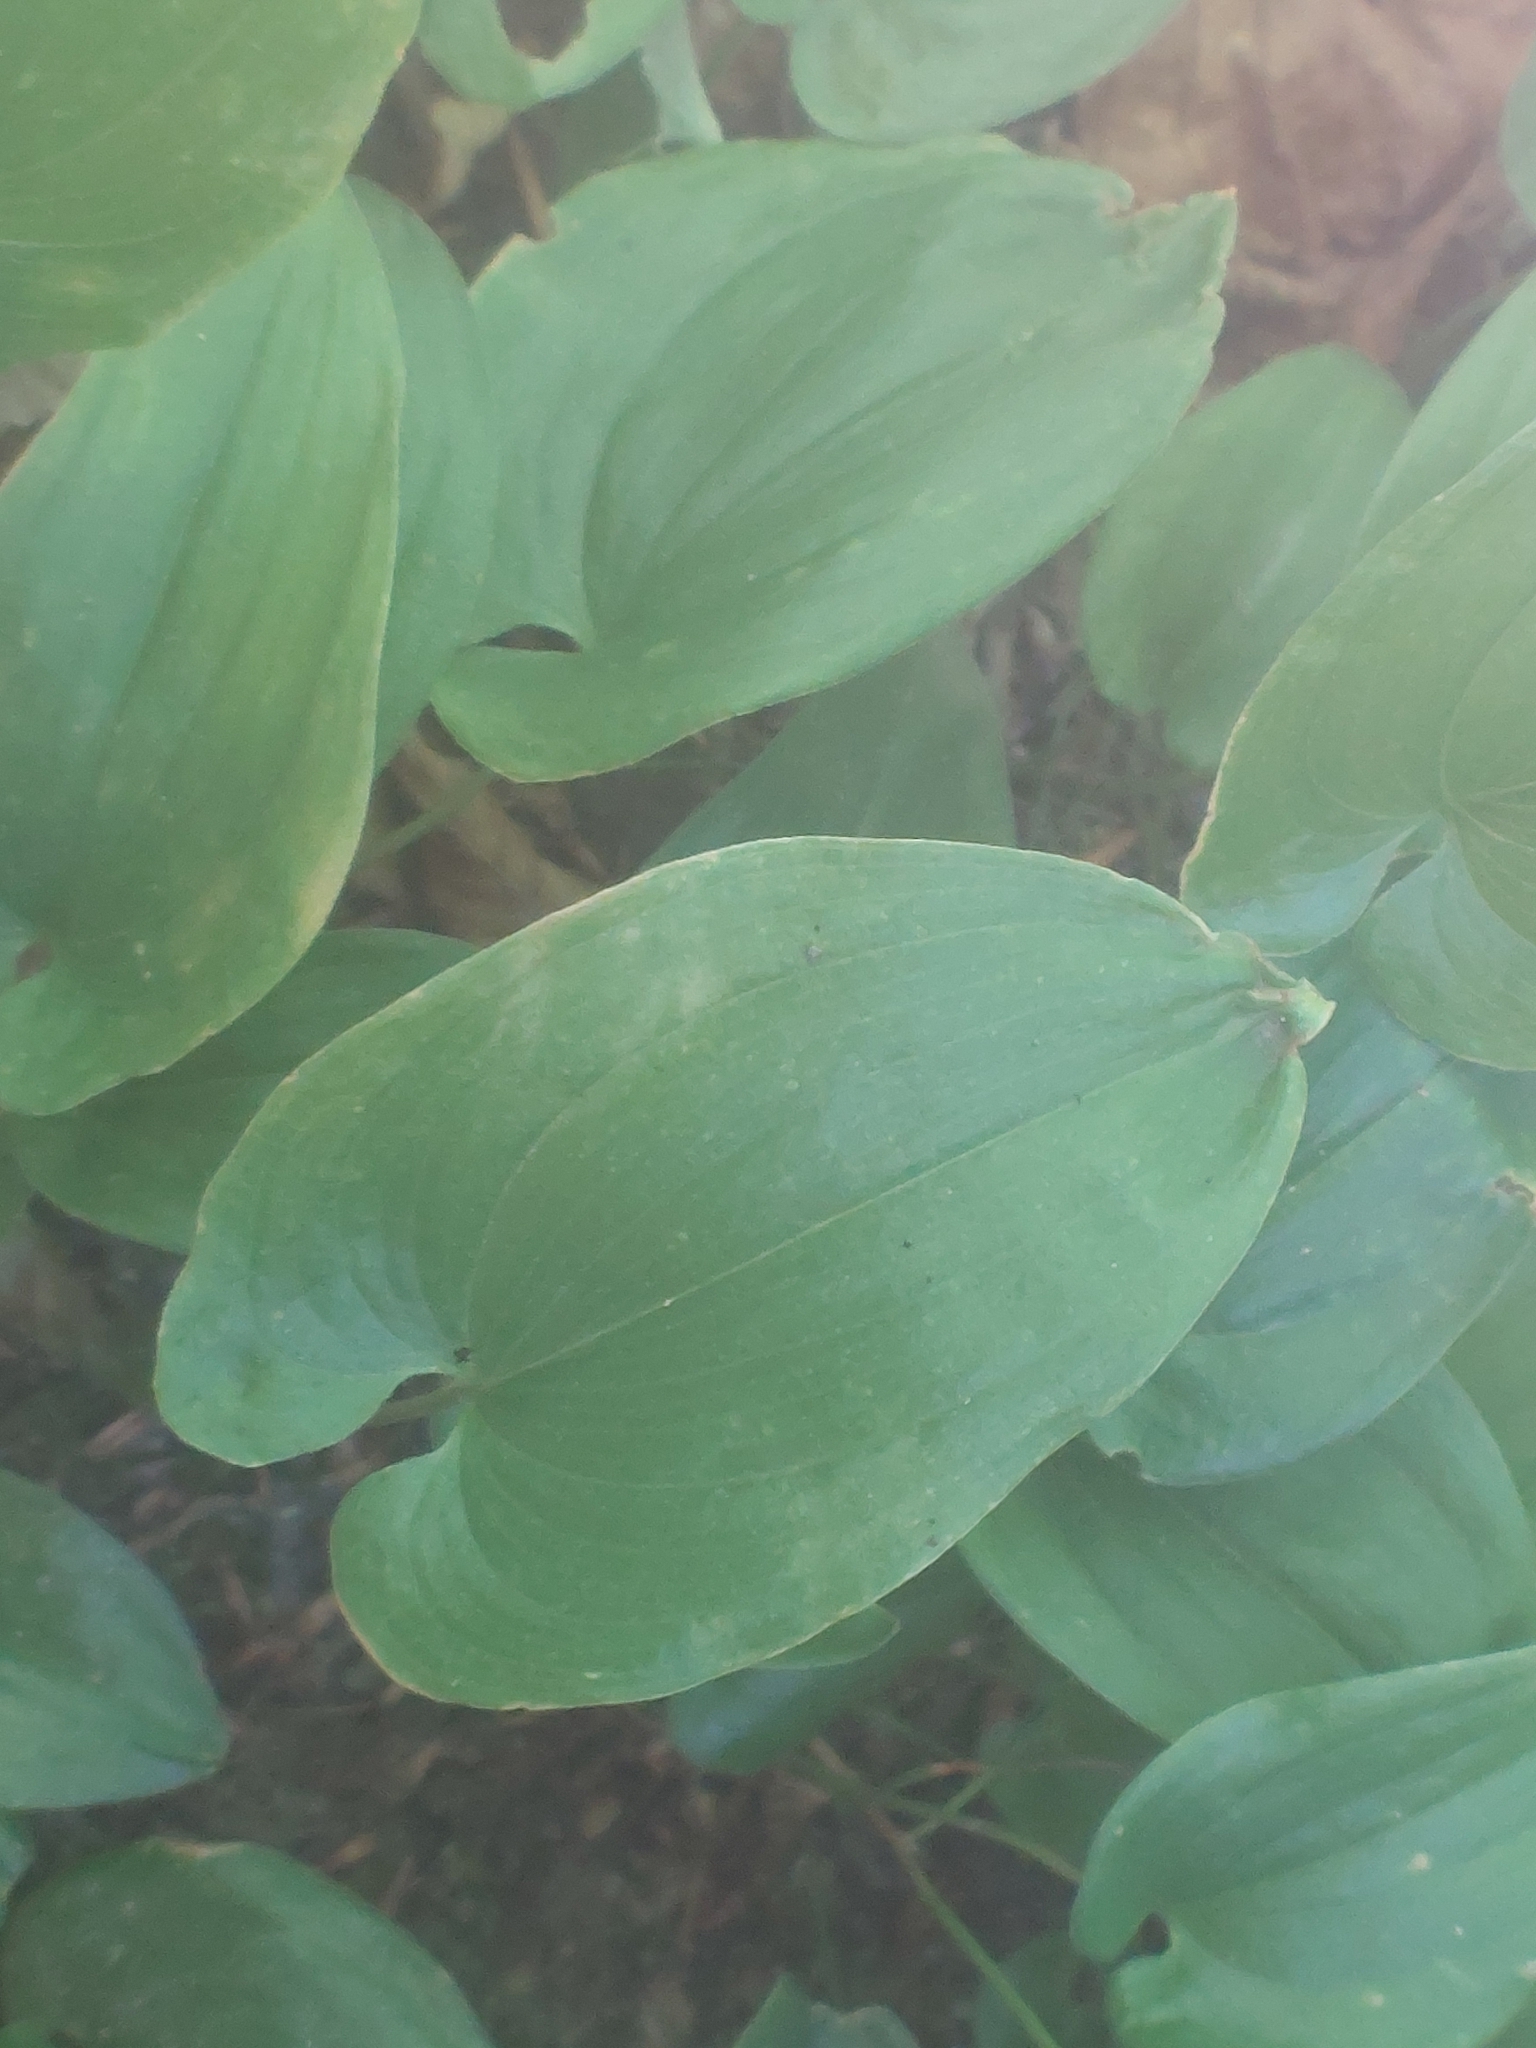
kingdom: Plantae
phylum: Tracheophyta
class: Liliopsida
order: Asparagales
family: Asparagaceae
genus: Maianthemum
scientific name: Maianthemum bifolium
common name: May lily
